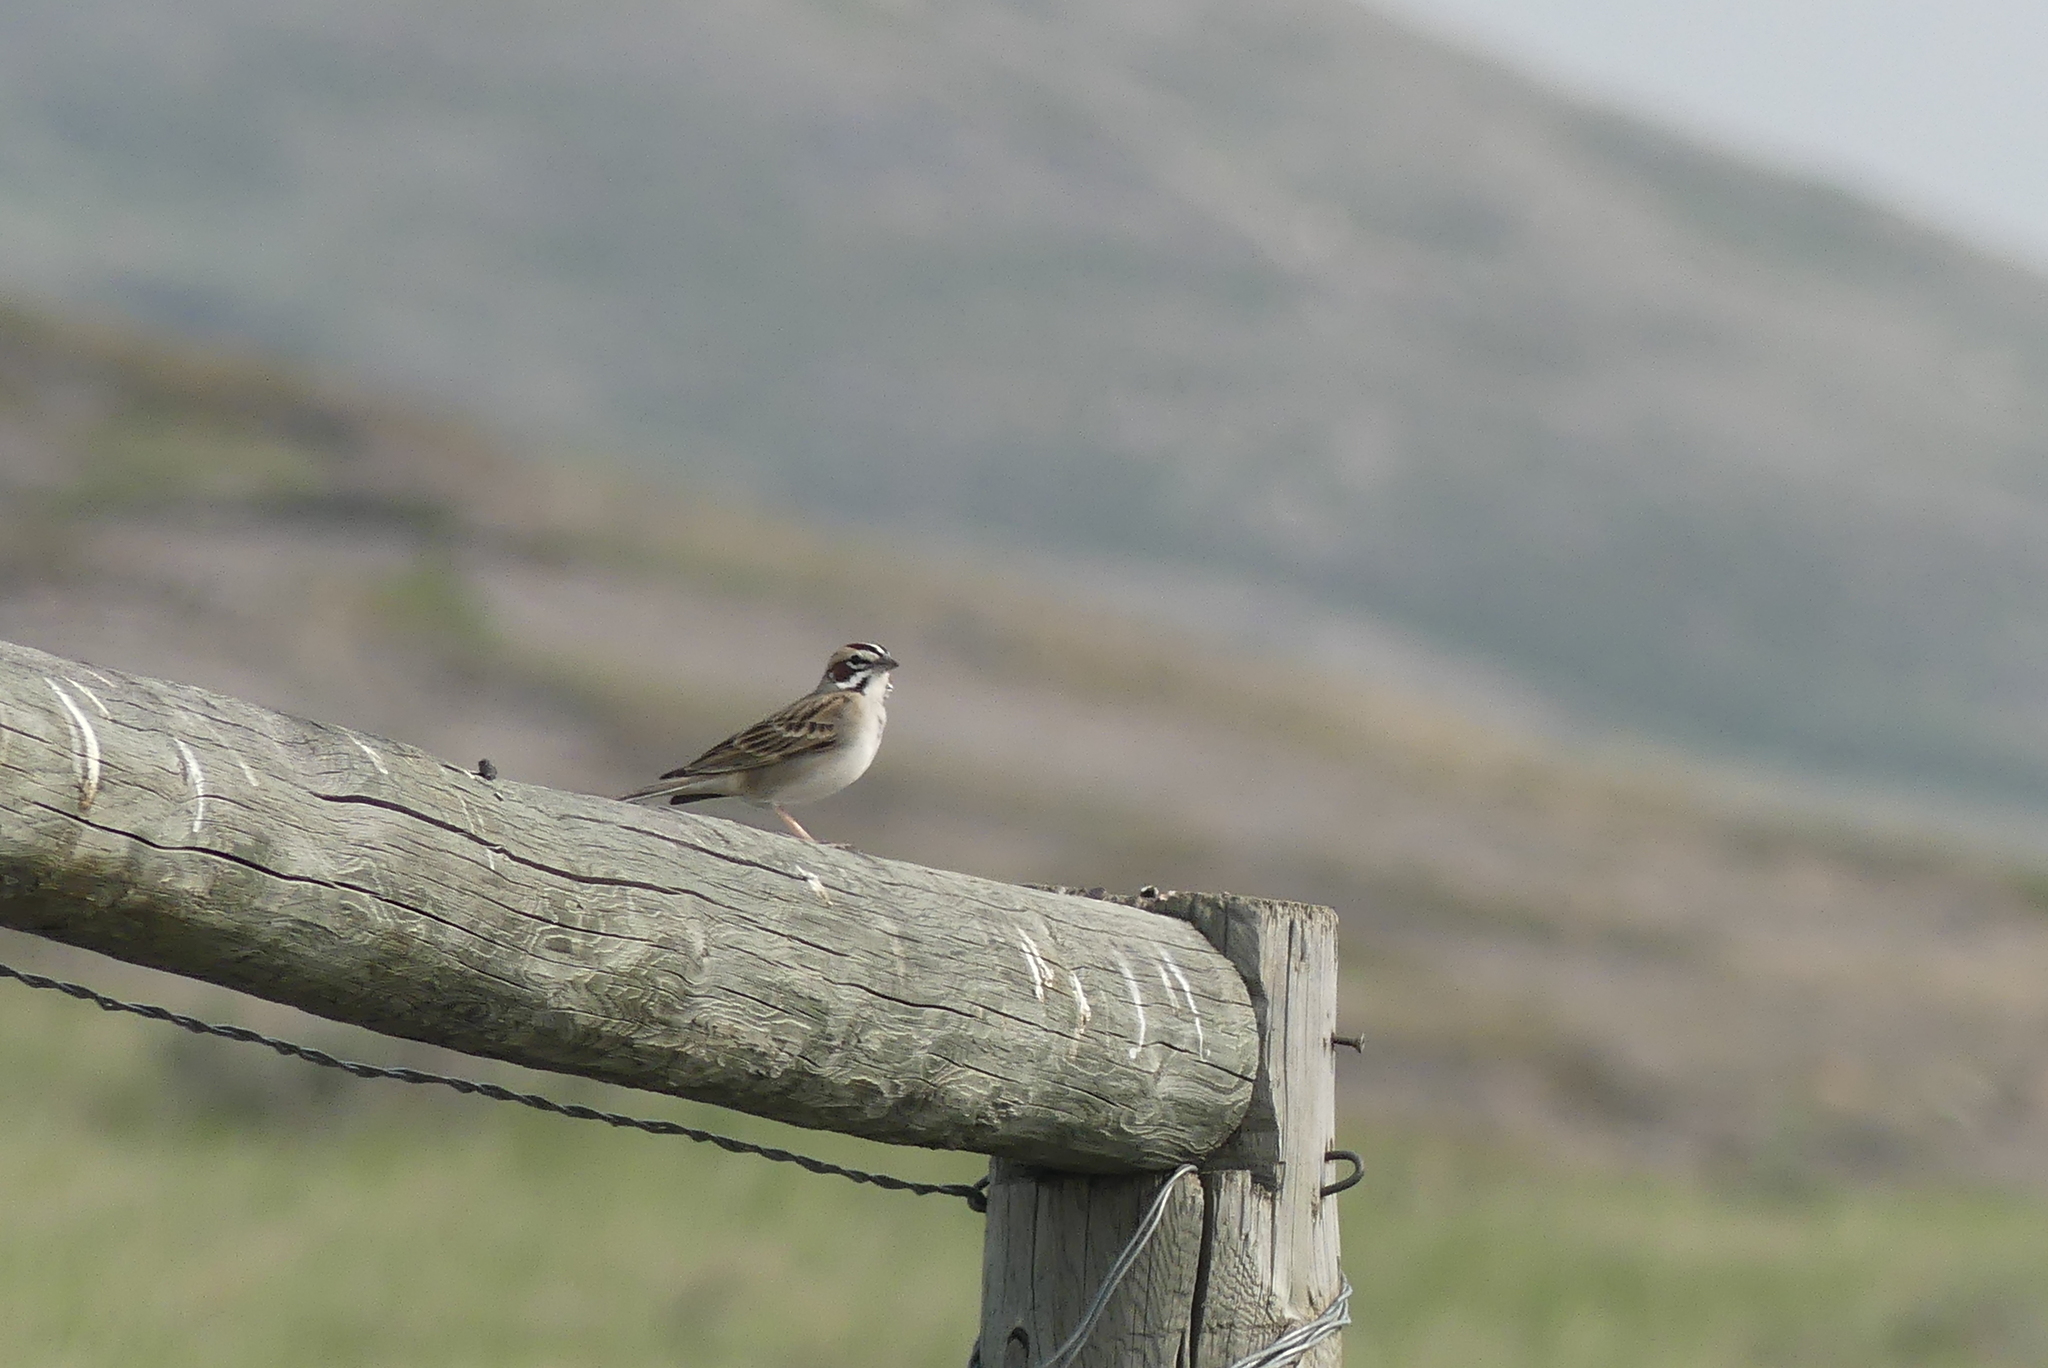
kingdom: Animalia
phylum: Chordata
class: Aves
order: Passeriformes
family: Passerellidae
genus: Chondestes
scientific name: Chondestes grammacus
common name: Lark sparrow
